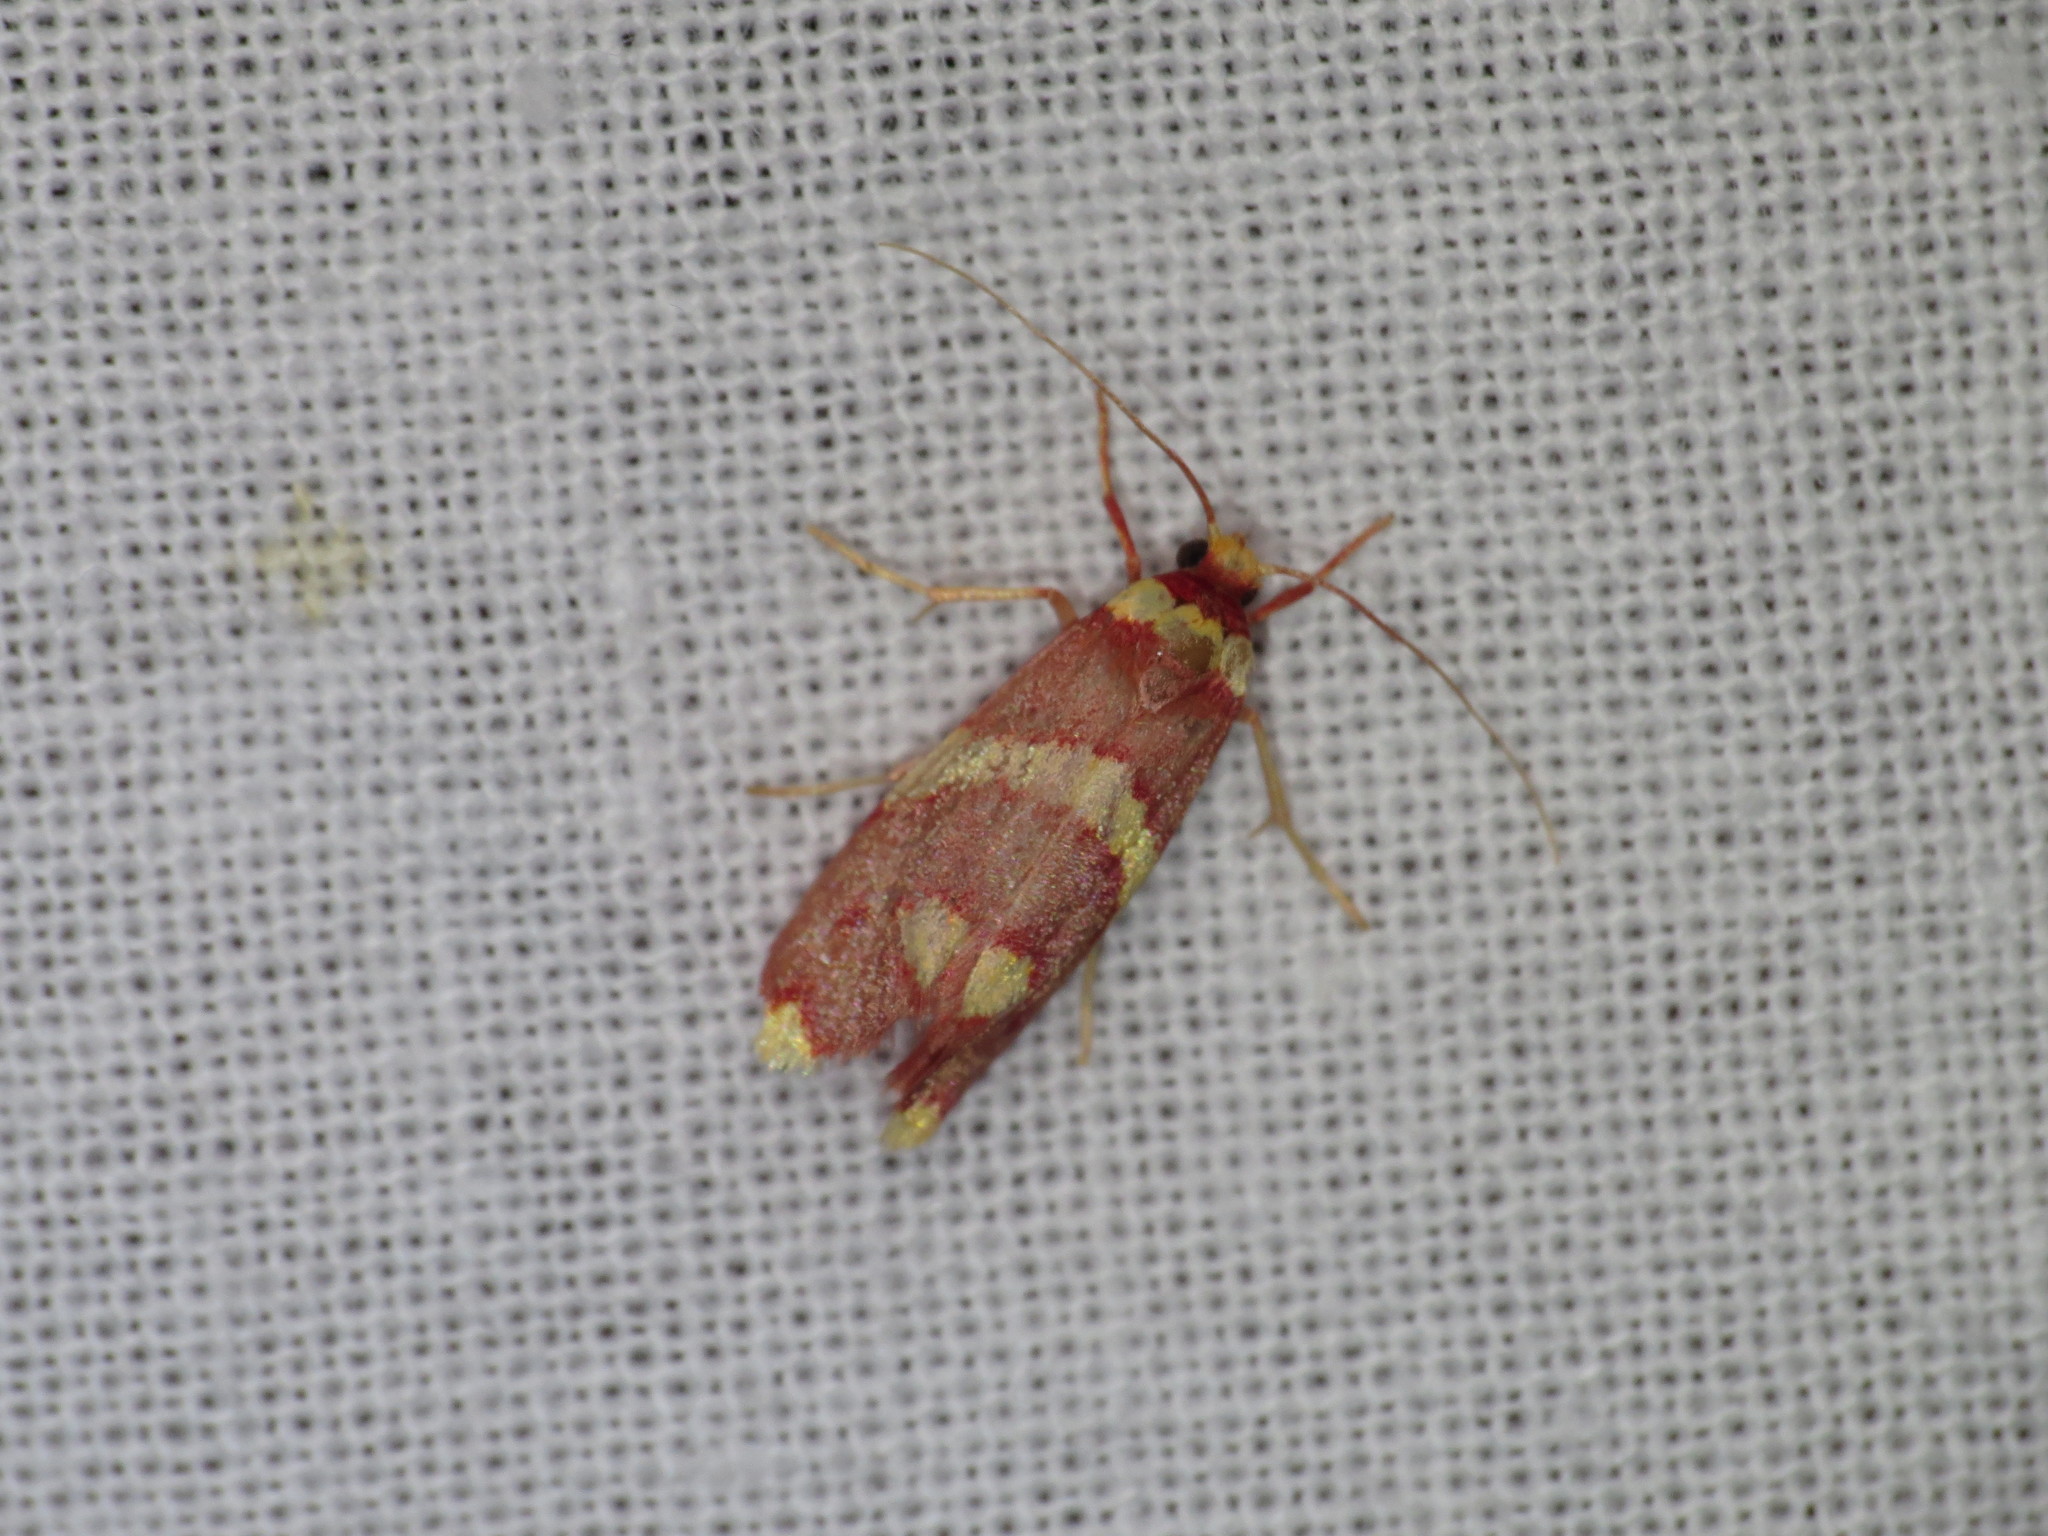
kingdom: Animalia
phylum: Arthropoda
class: Insecta
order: Lepidoptera
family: Lacturidae
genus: Anticrates
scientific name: Anticrates metreta
